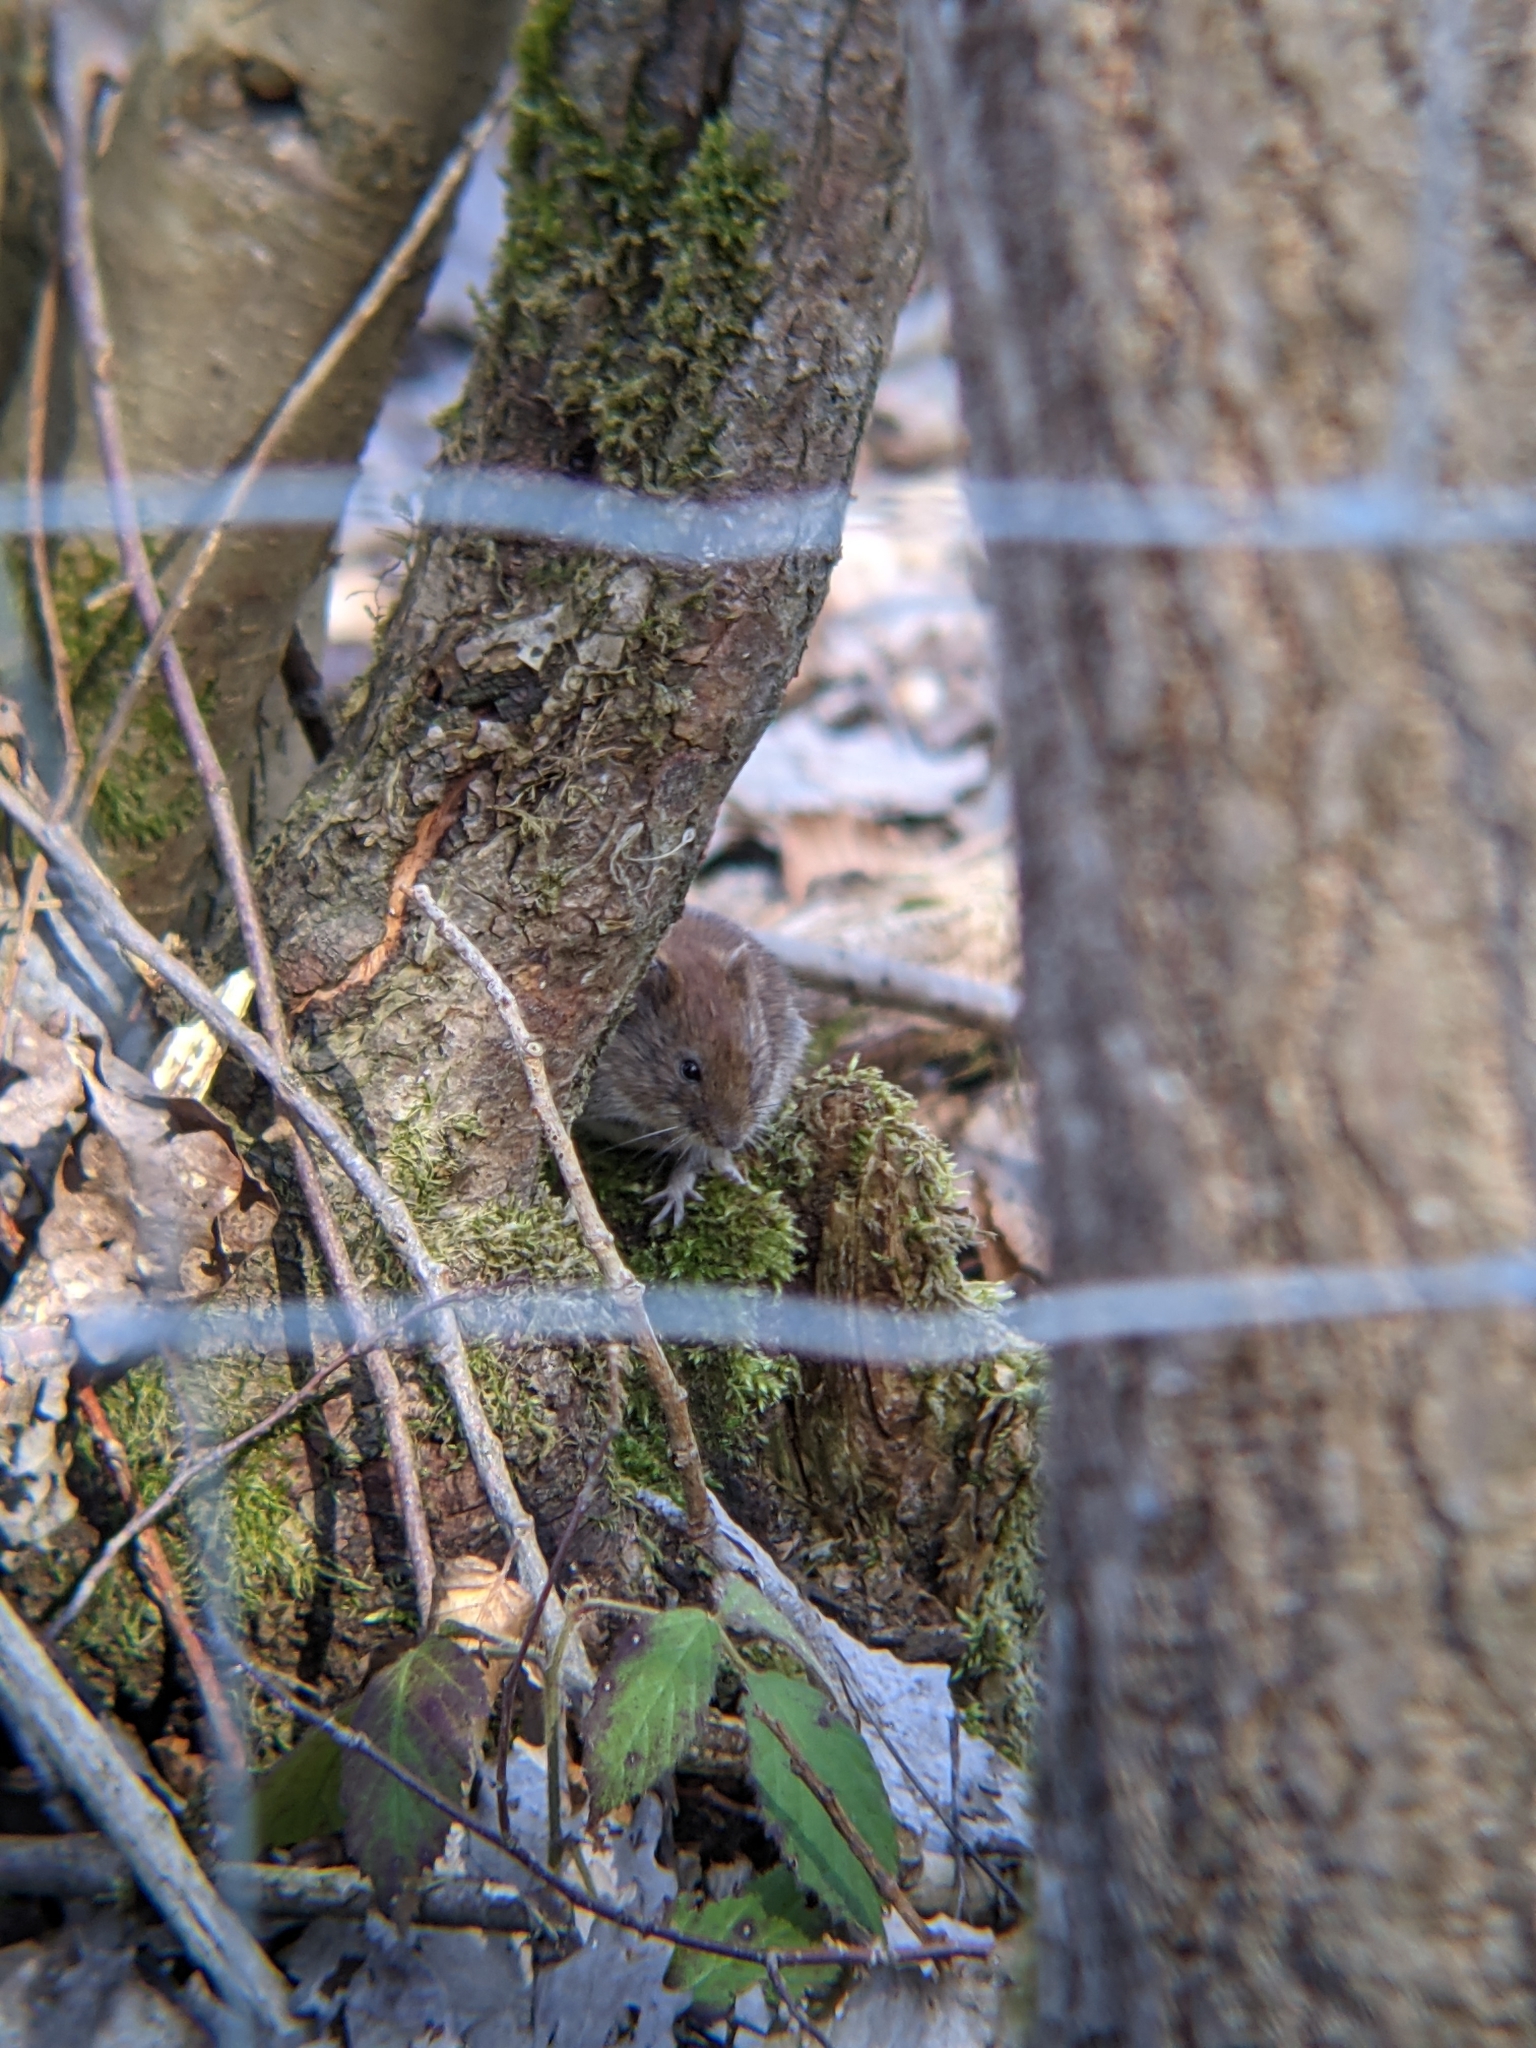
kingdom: Animalia
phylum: Chordata
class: Mammalia
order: Rodentia
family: Cricetidae
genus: Myodes
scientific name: Myodes glareolus
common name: Bank vole
